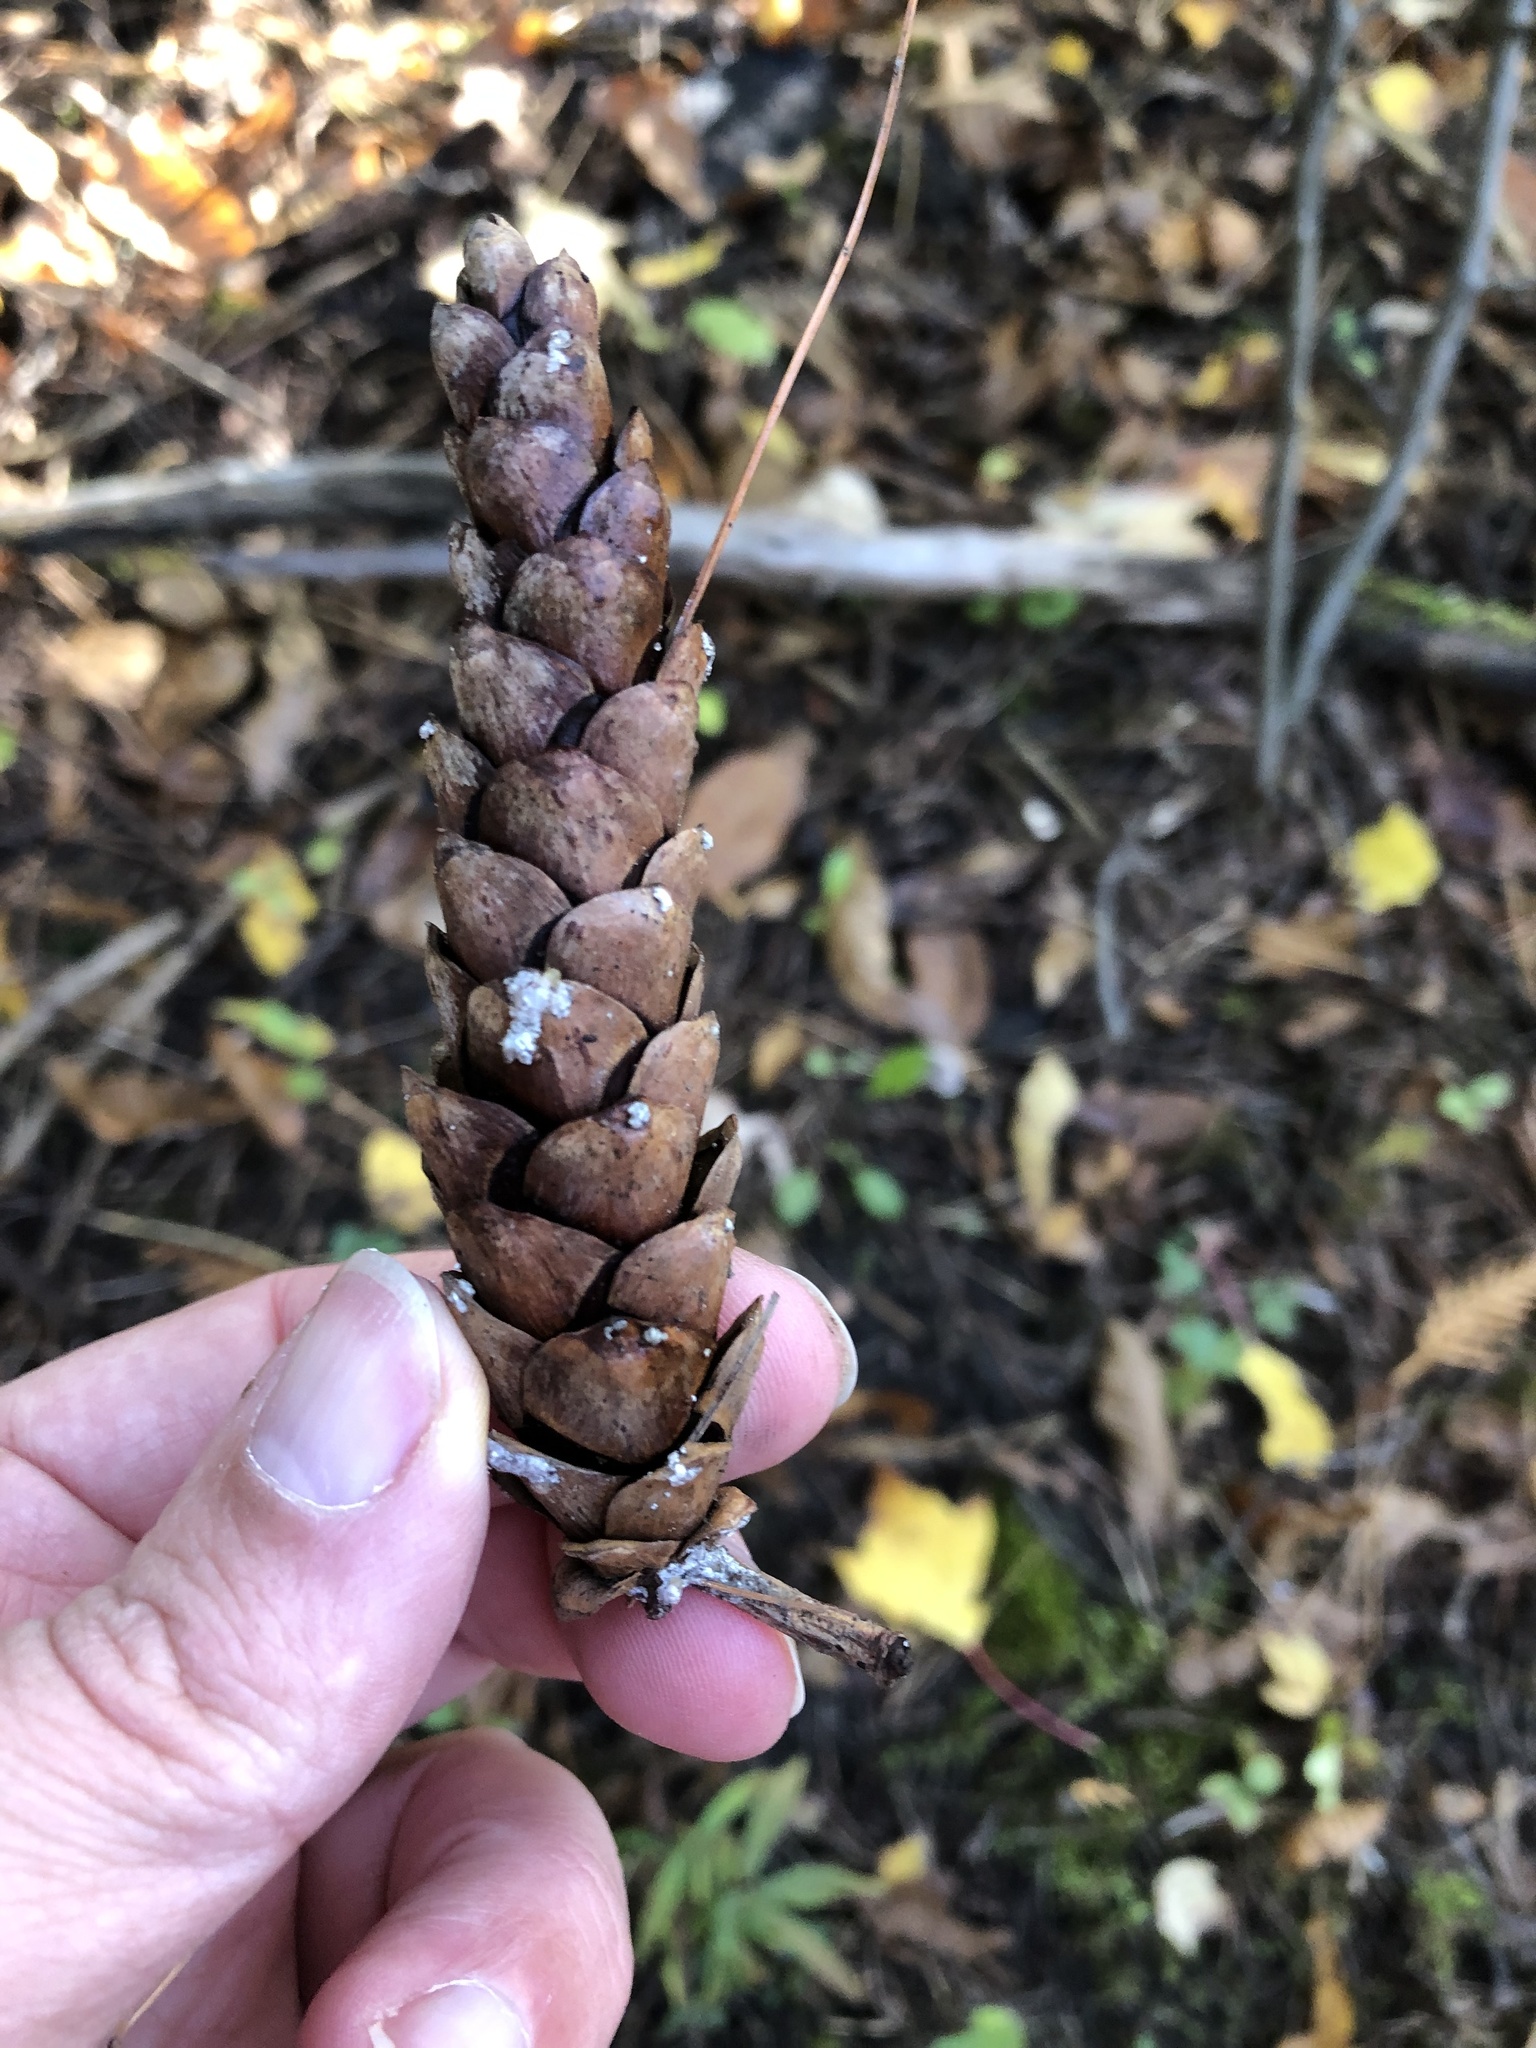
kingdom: Plantae
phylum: Tracheophyta
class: Pinopsida
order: Pinales
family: Pinaceae
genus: Pinus
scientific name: Pinus strobus
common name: Weymouth pine
